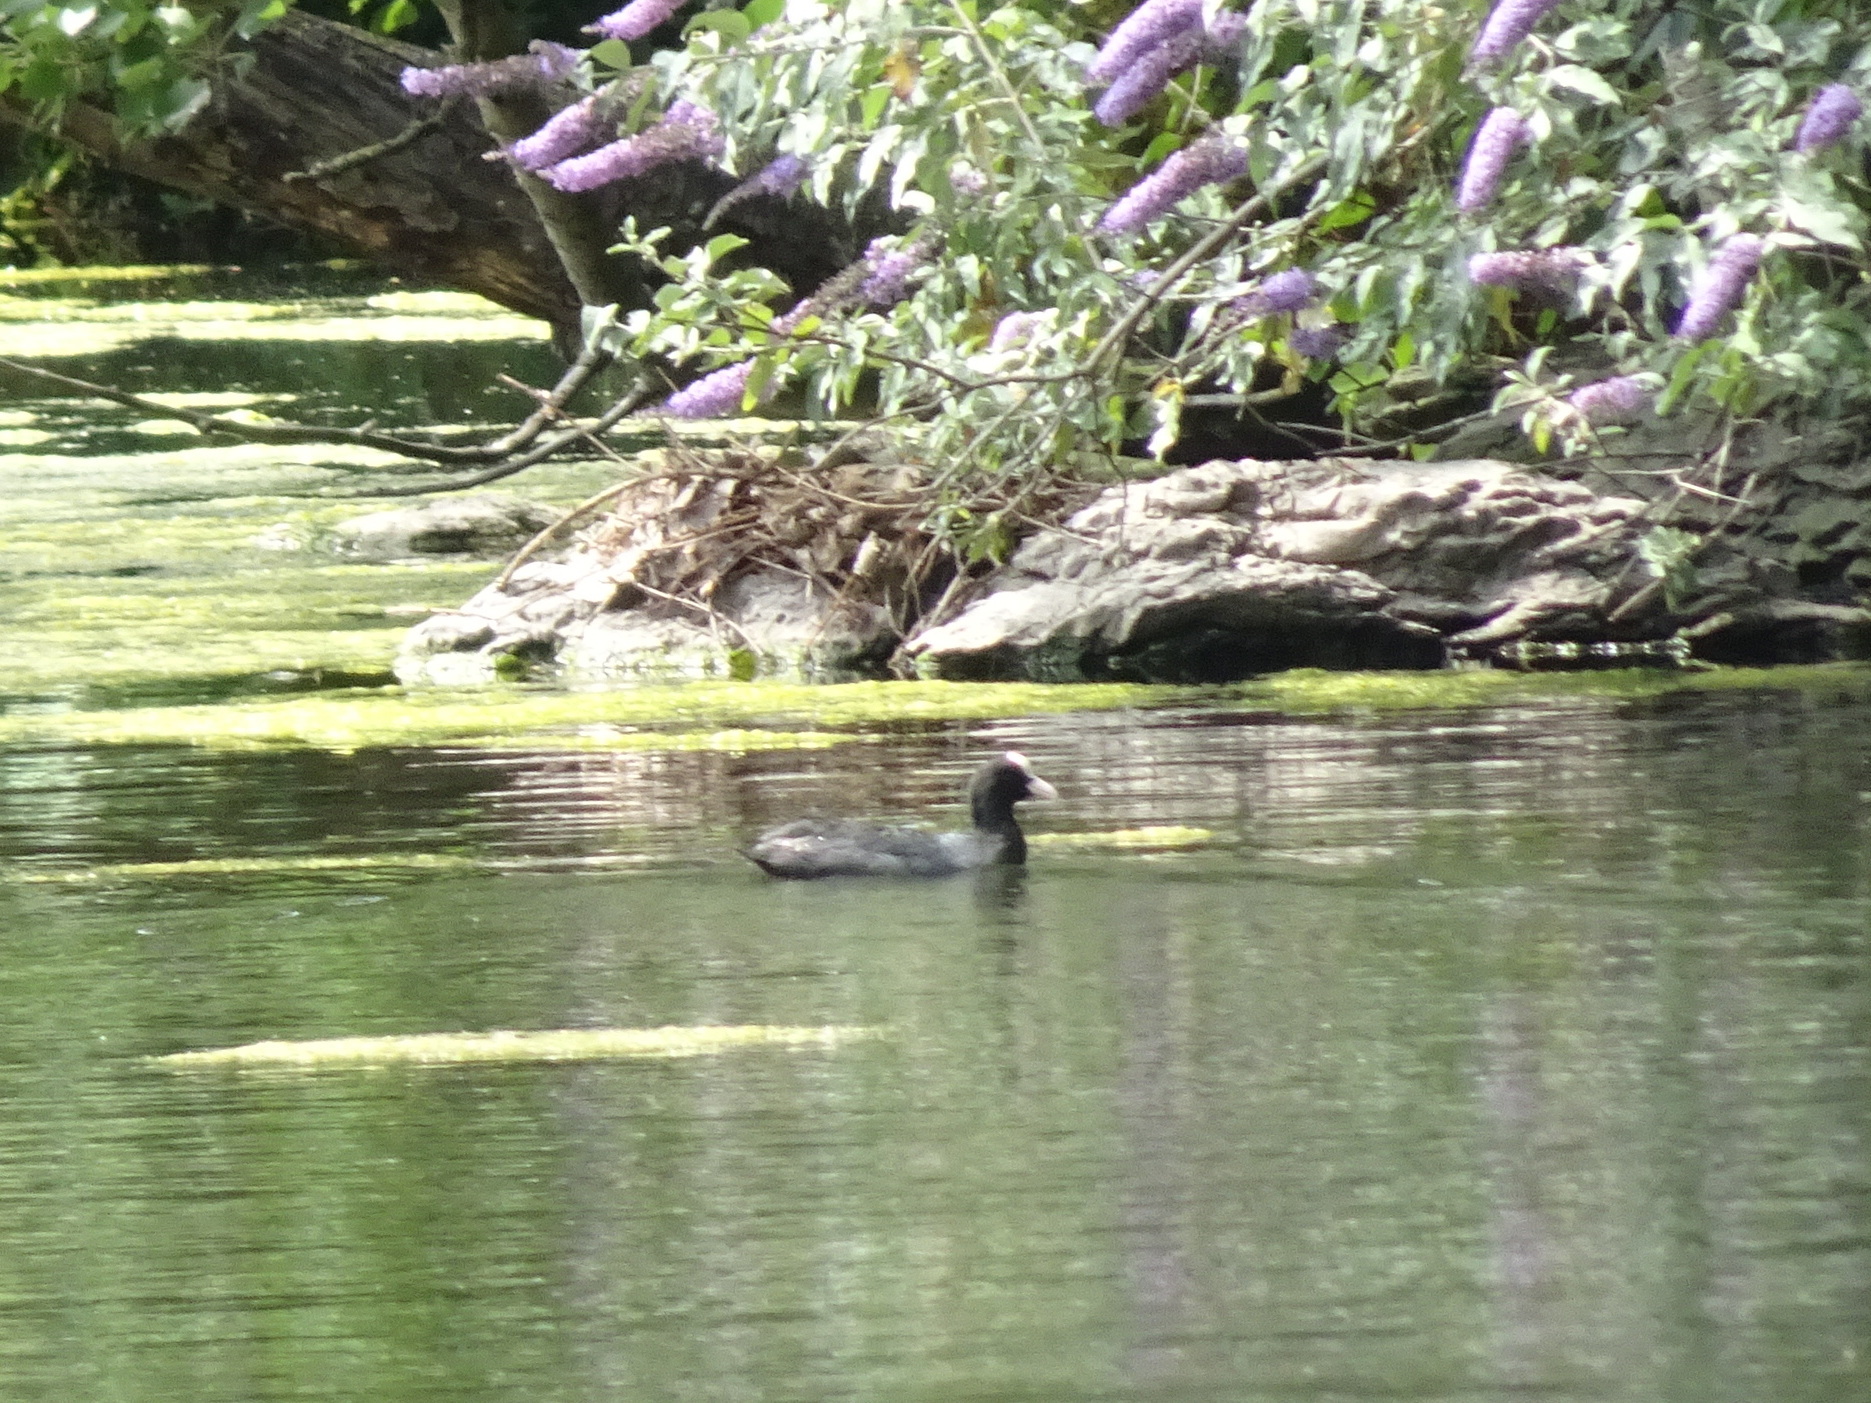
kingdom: Animalia
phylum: Chordata
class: Aves
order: Gruiformes
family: Rallidae
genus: Fulica
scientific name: Fulica atra
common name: Eurasian coot
